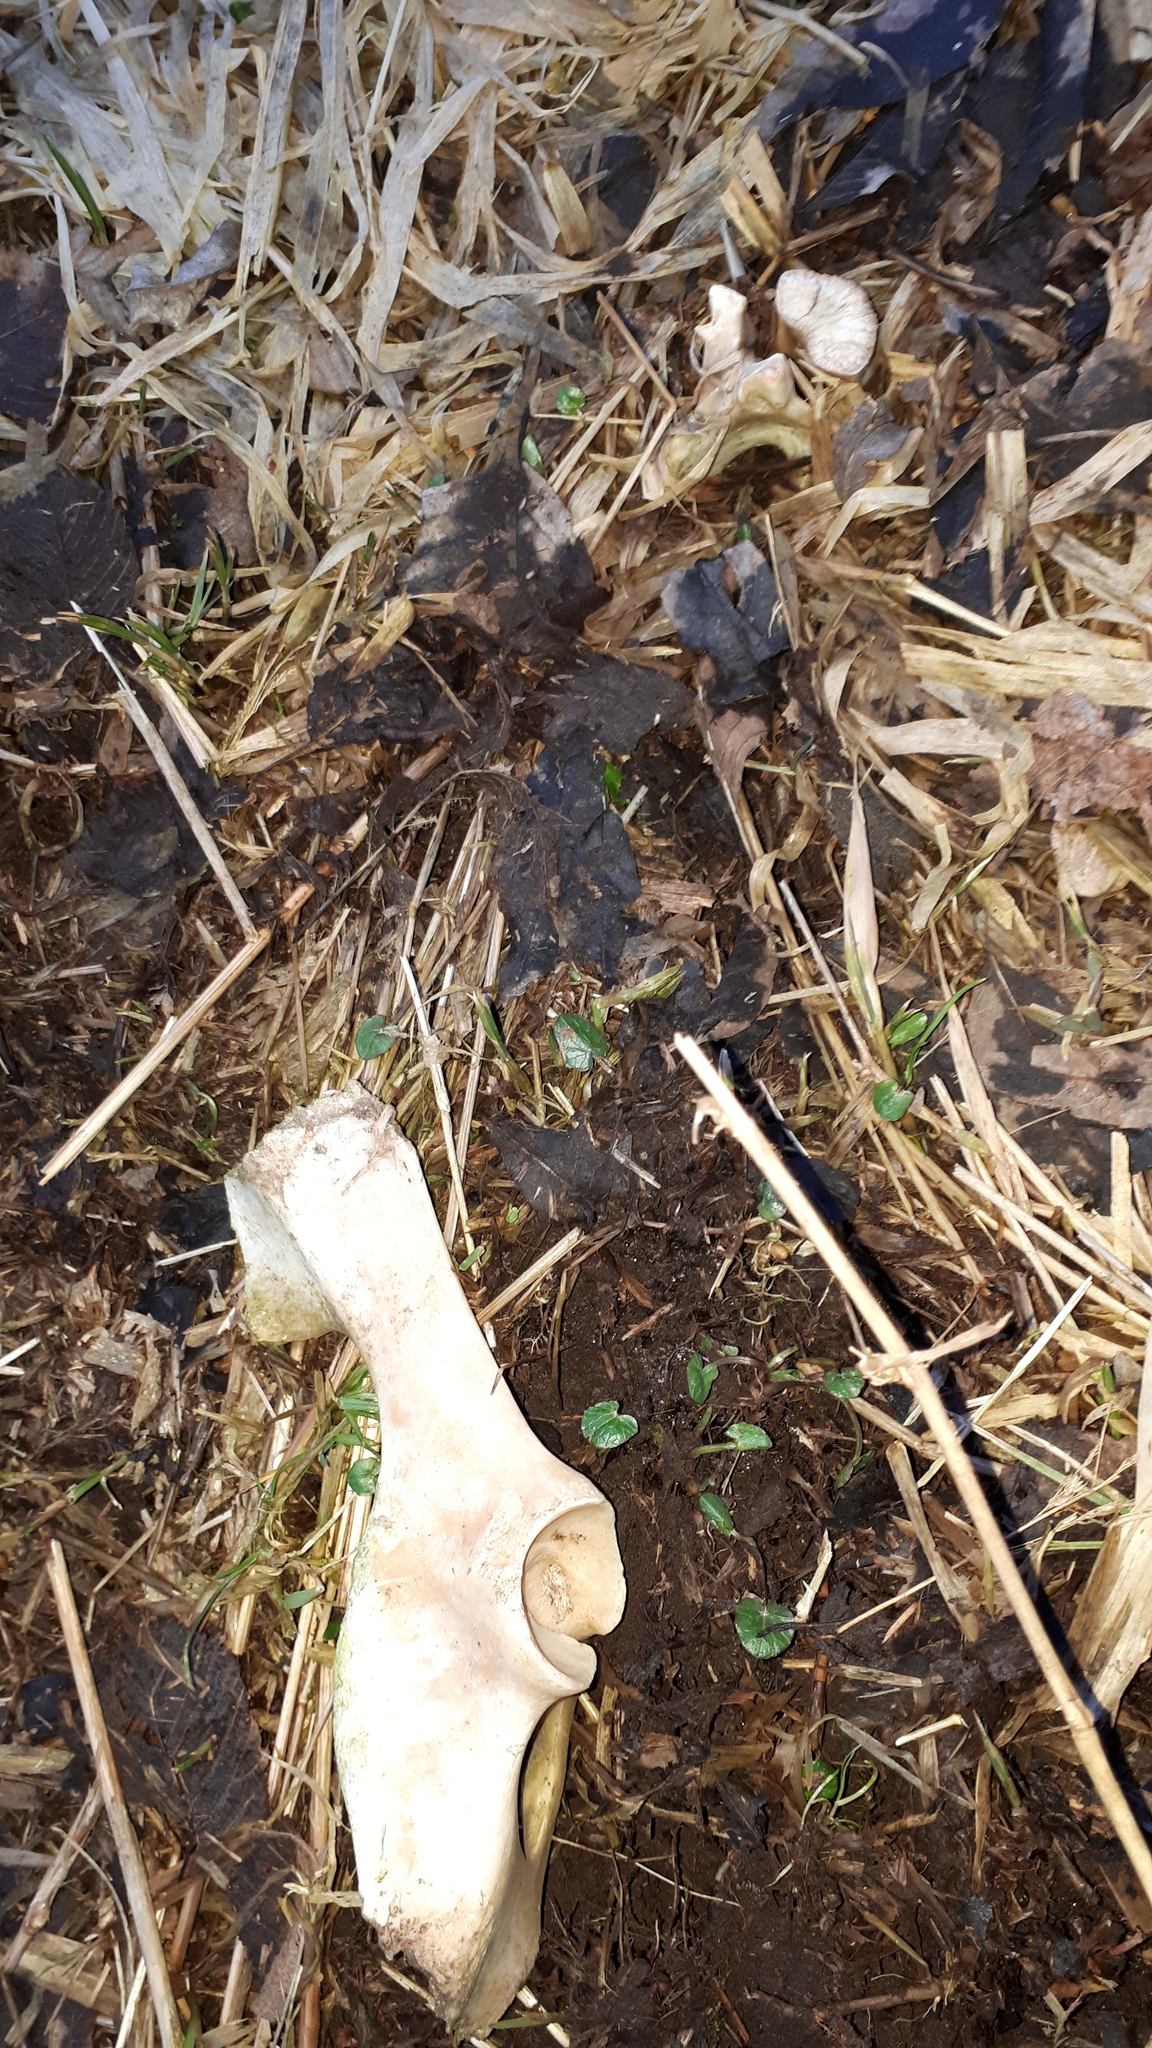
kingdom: Animalia
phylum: Chordata
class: Mammalia
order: Artiodactyla
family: Suidae
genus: Sus
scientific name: Sus scrofa
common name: Wild boar
